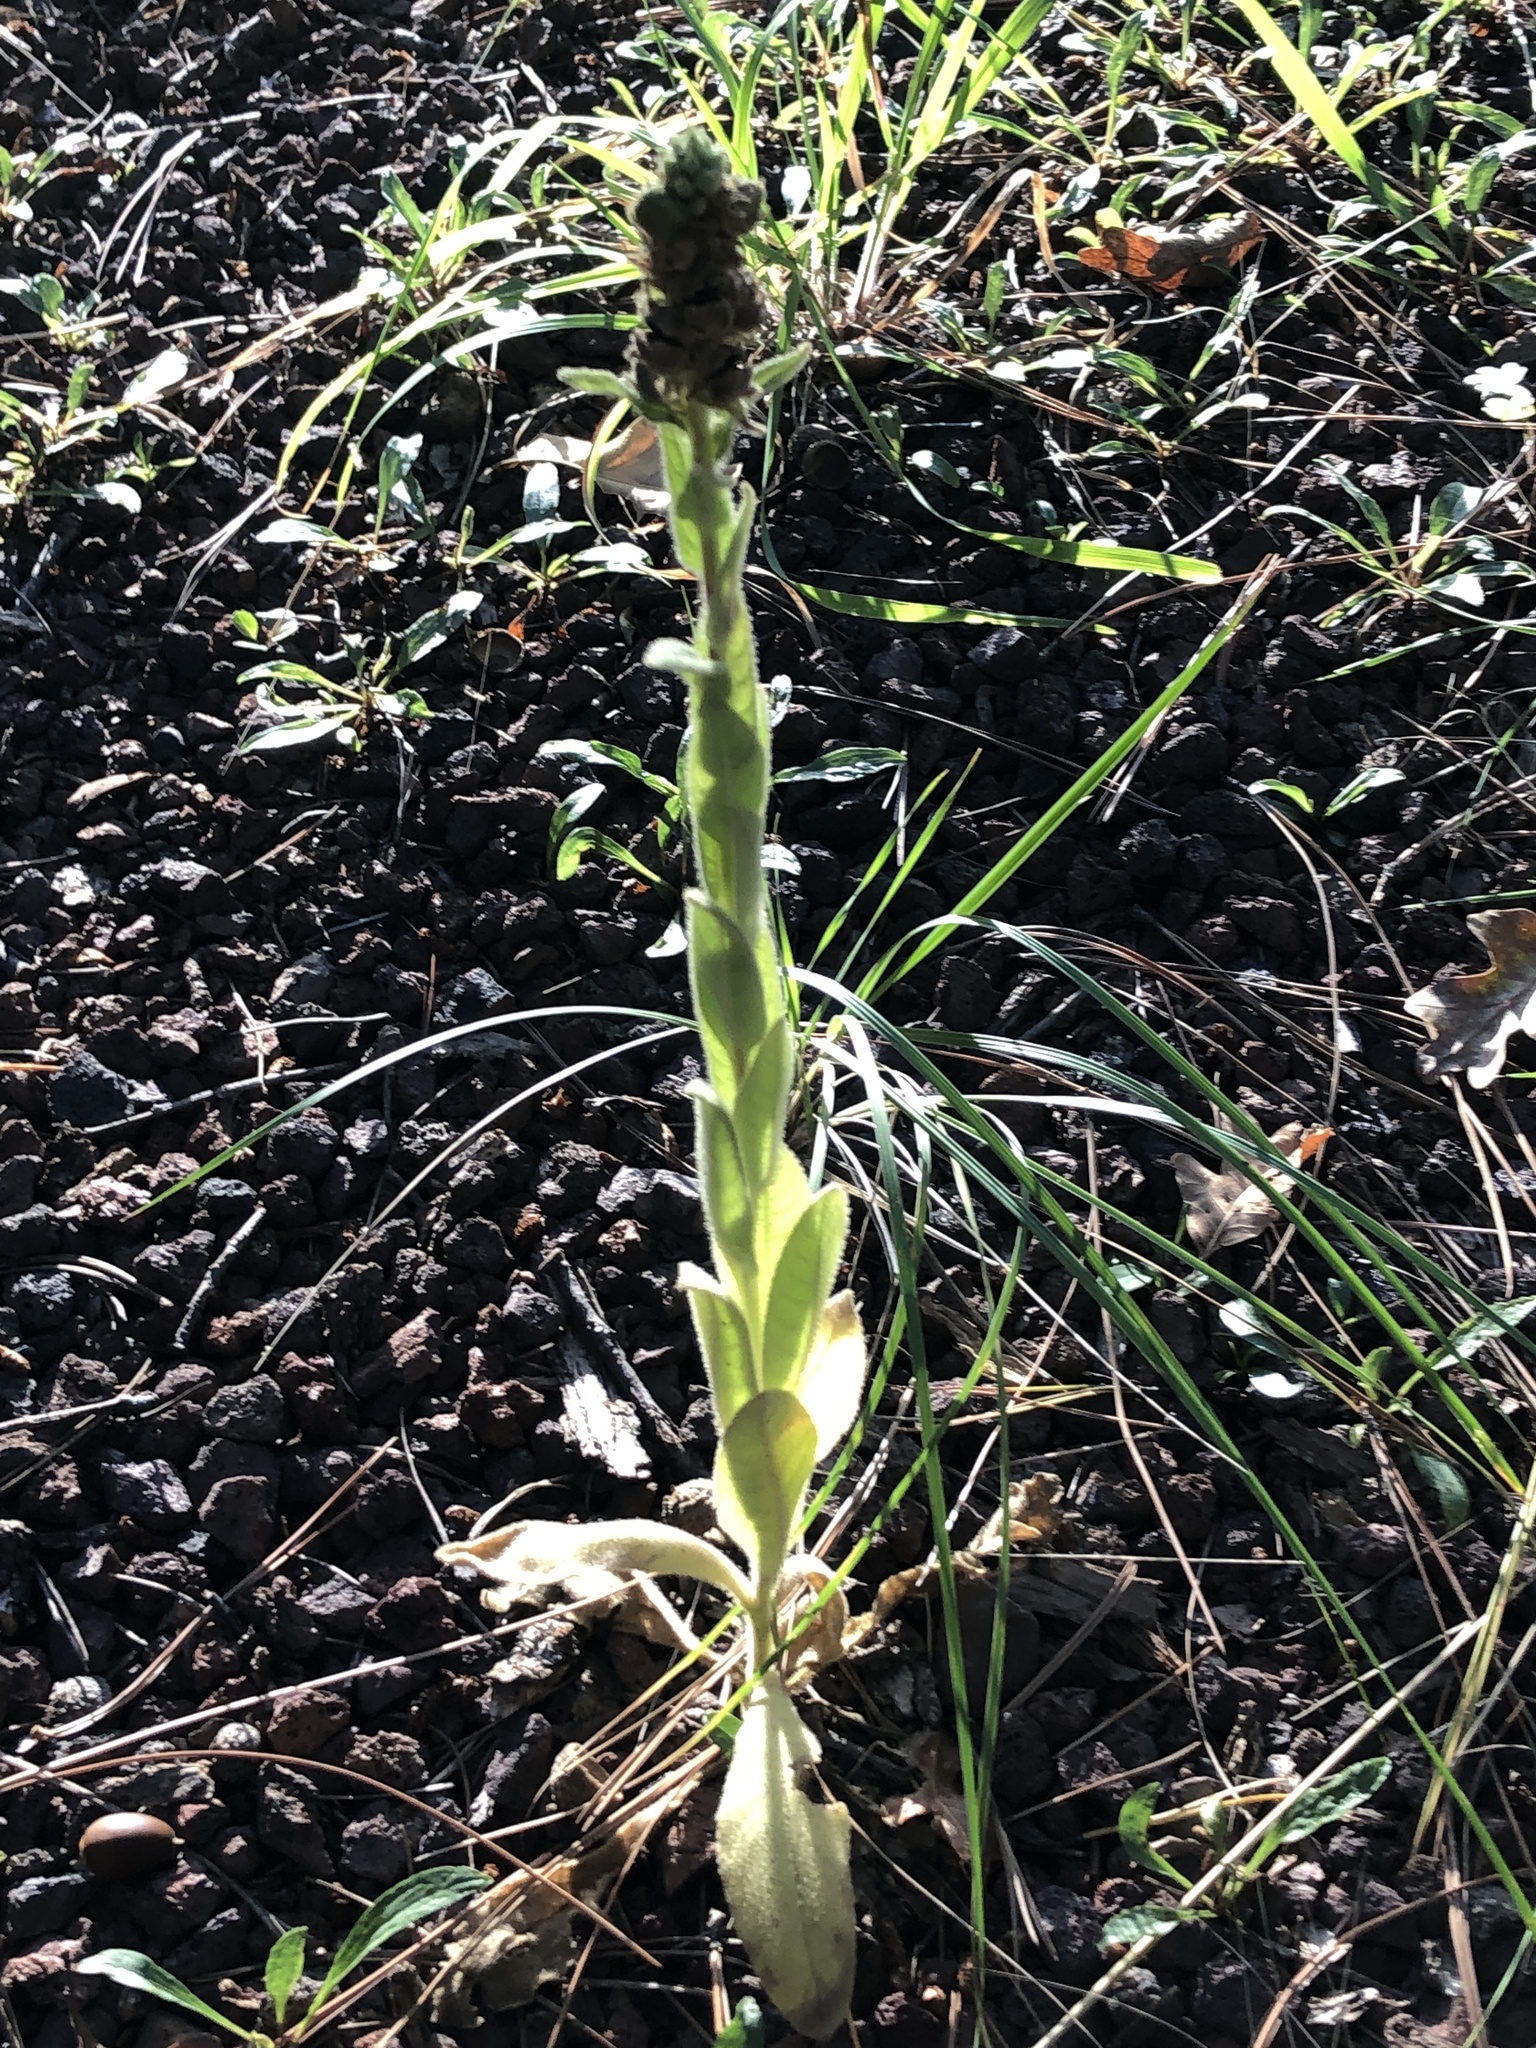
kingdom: Plantae
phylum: Tracheophyta
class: Magnoliopsida
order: Lamiales
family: Scrophulariaceae
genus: Verbascum
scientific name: Verbascum thapsus
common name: Common mullein
